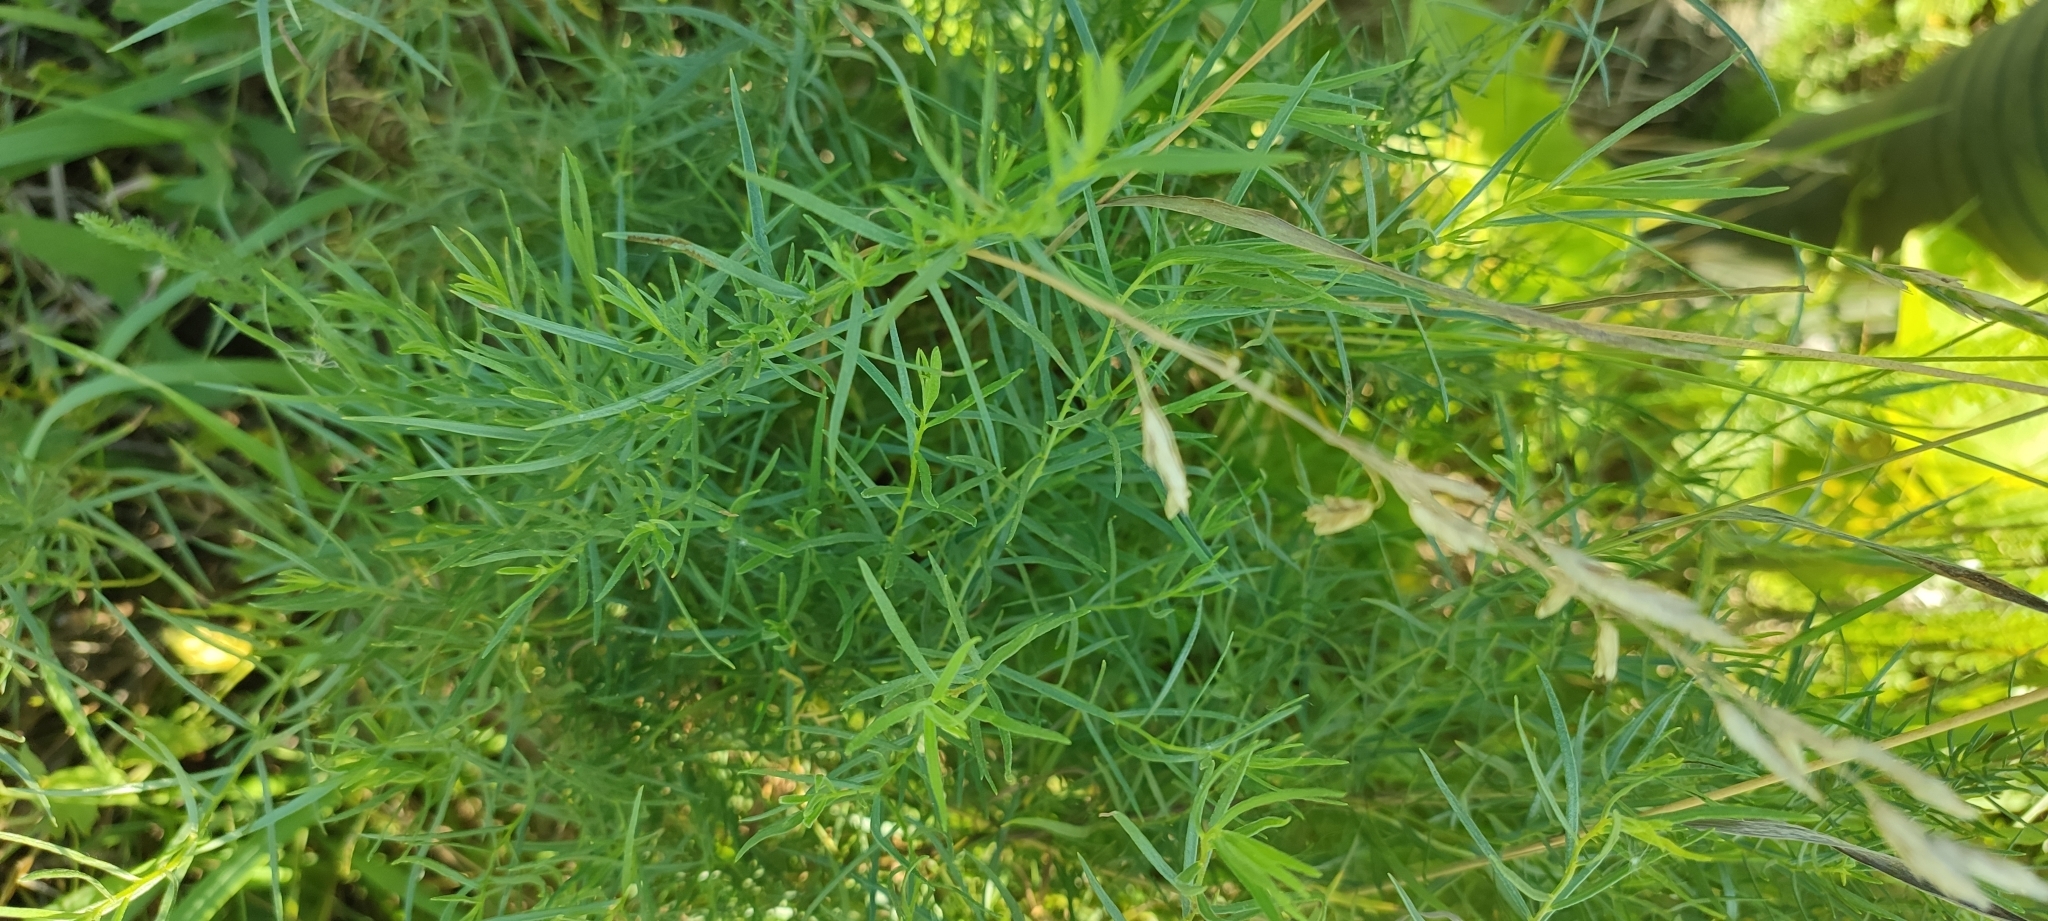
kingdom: Plantae
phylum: Tracheophyta
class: Magnoliopsida
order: Asterales
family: Asteraceae
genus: Artemisia
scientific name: Artemisia dracunculus
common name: Tarragon
